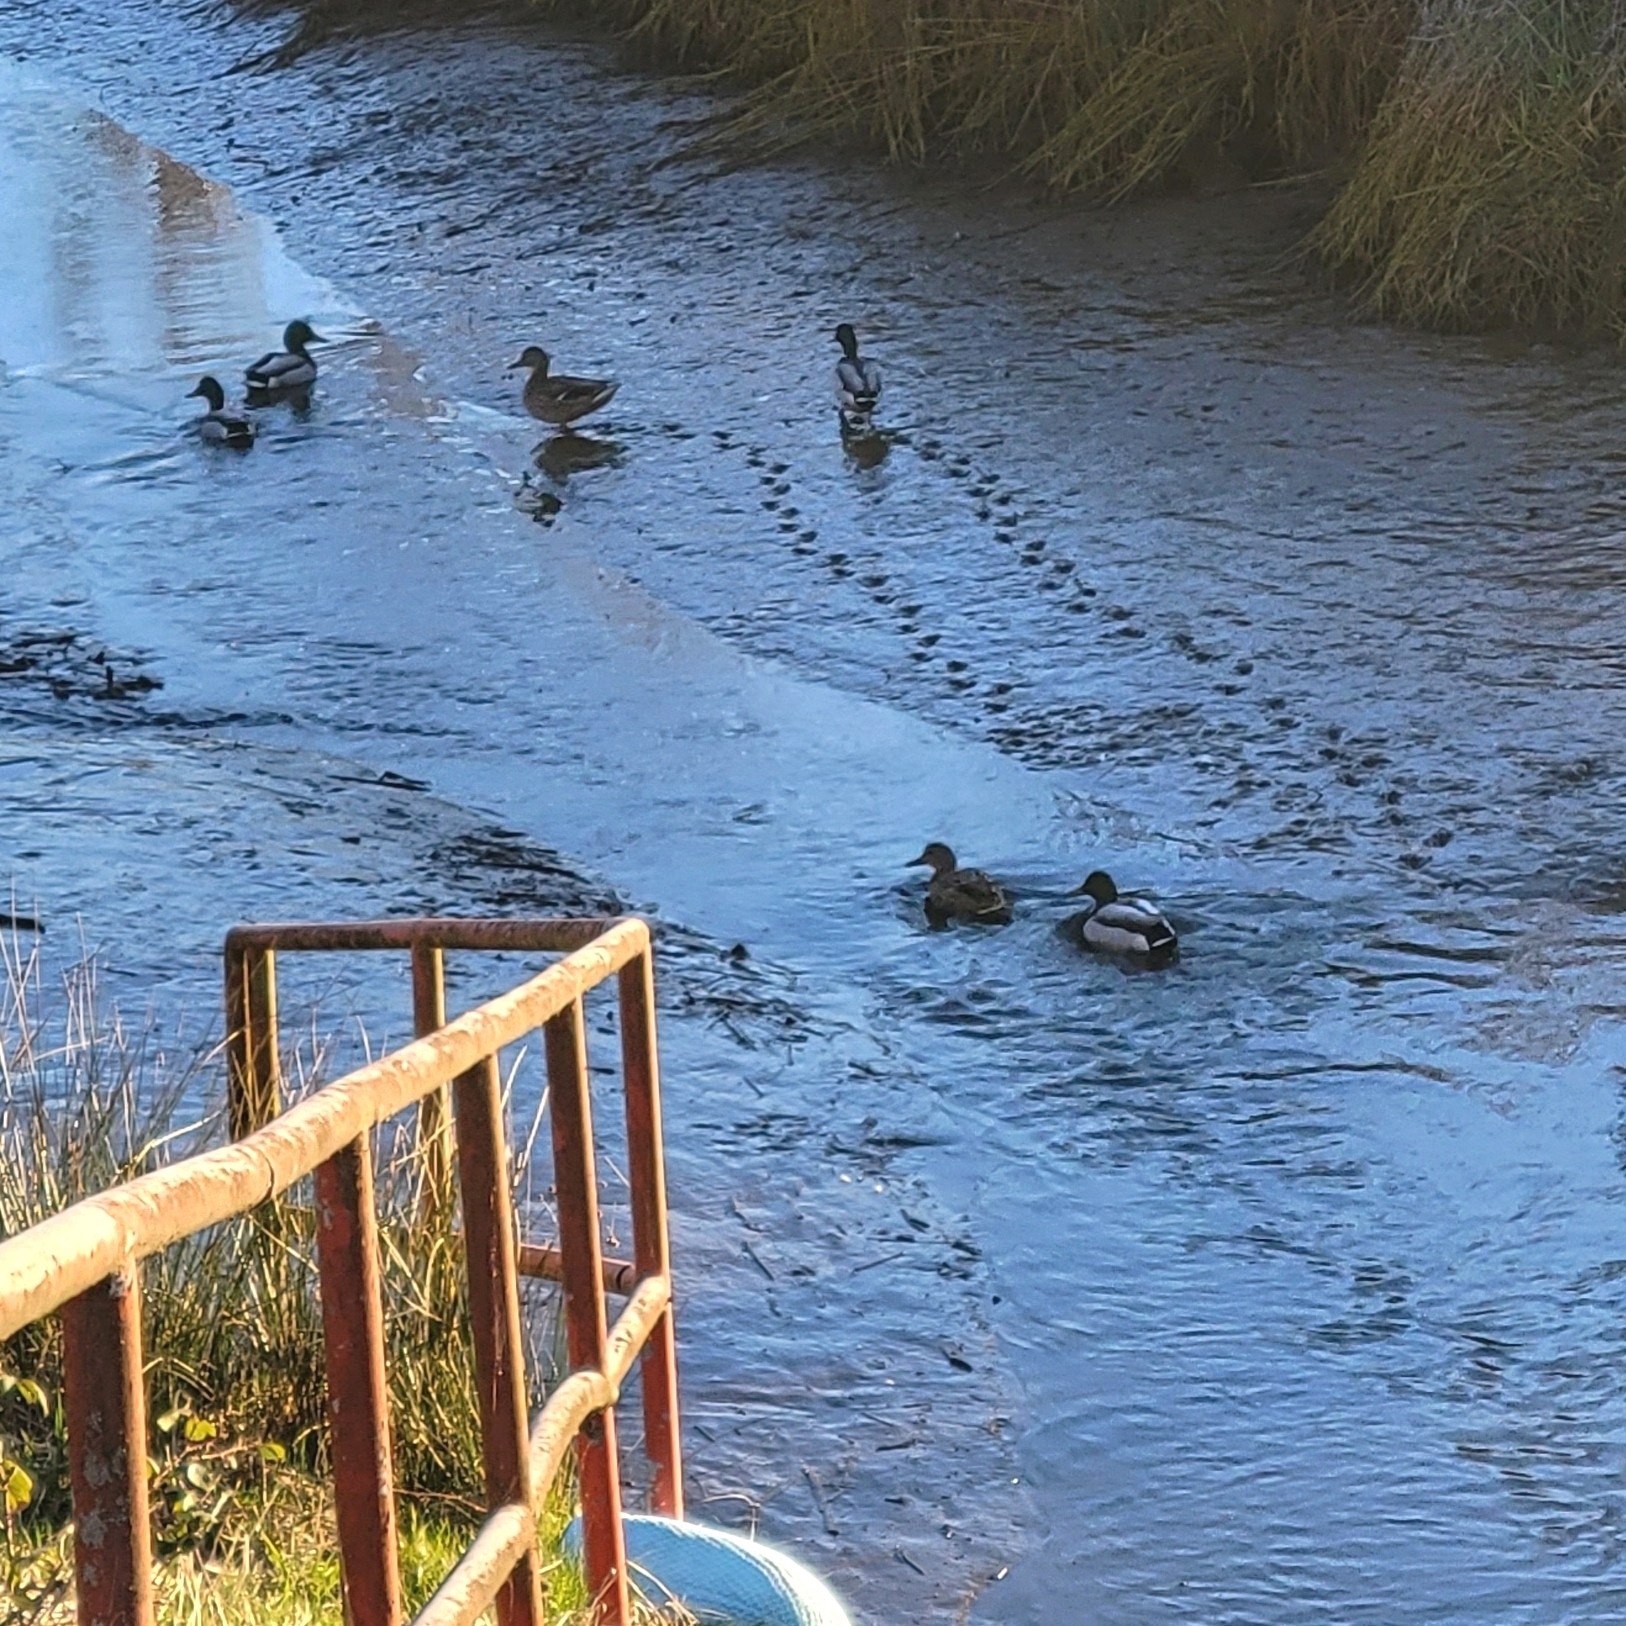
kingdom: Animalia
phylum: Chordata
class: Aves
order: Anseriformes
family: Anatidae
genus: Anas
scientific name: Anas platyrhynchos
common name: Mallard
